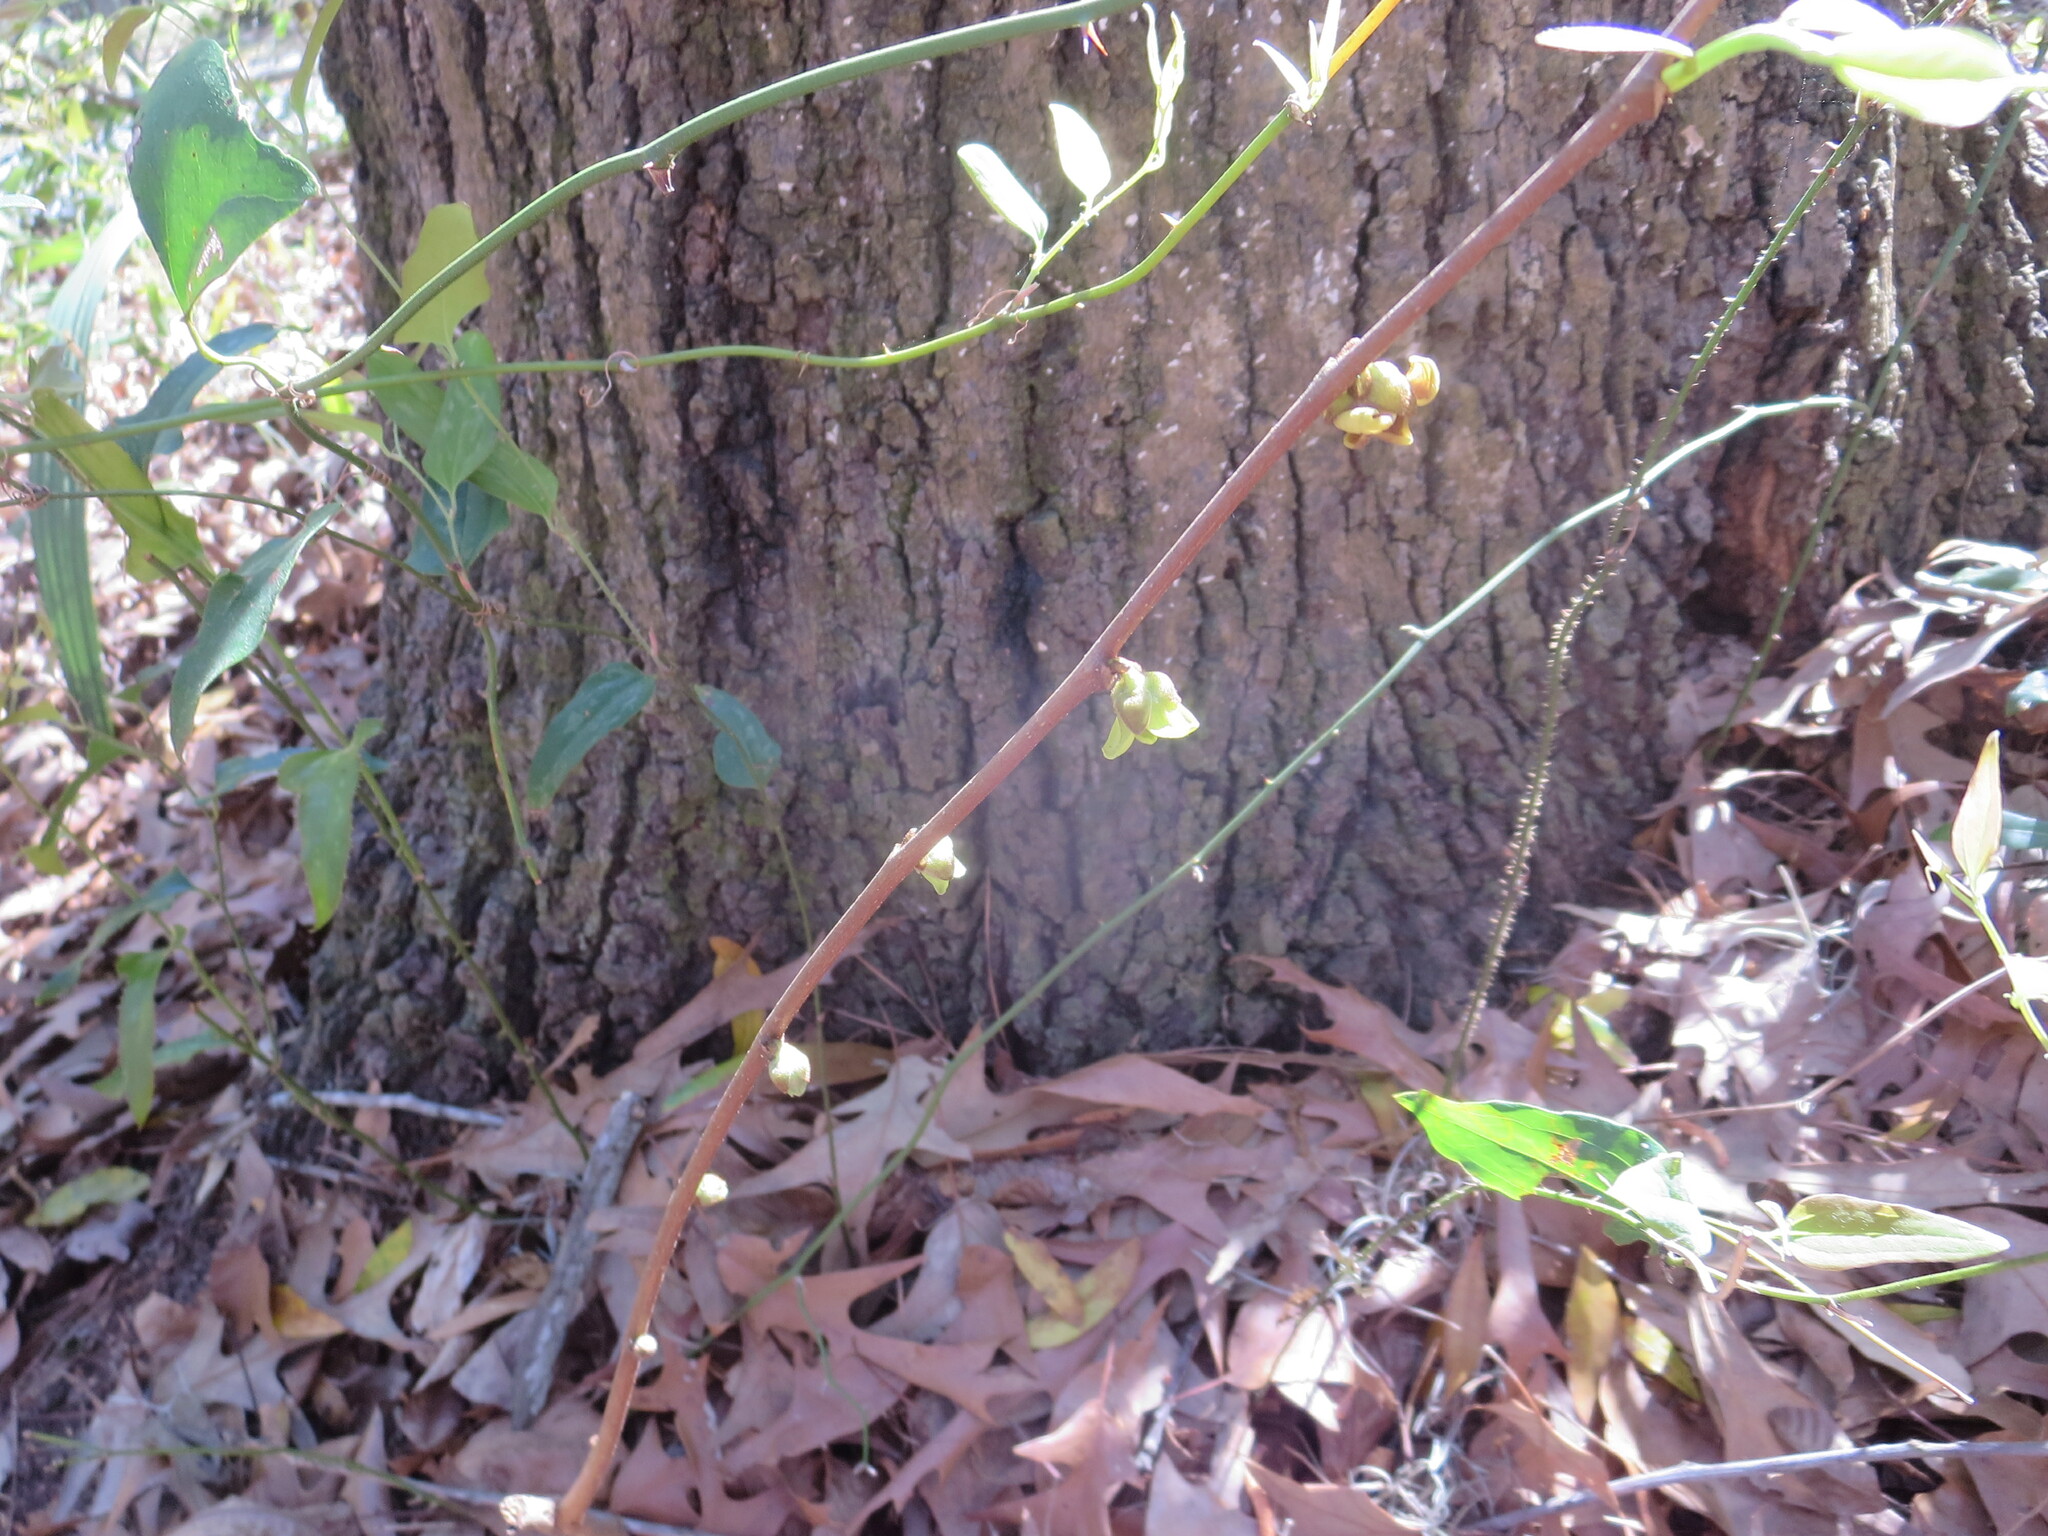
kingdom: Plantae
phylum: Tracheophyta
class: Magnoliopsida
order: Magnoliales
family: Annonaceae
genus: Asimina
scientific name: Asimina parviflora
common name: Dwarf pawpaw
